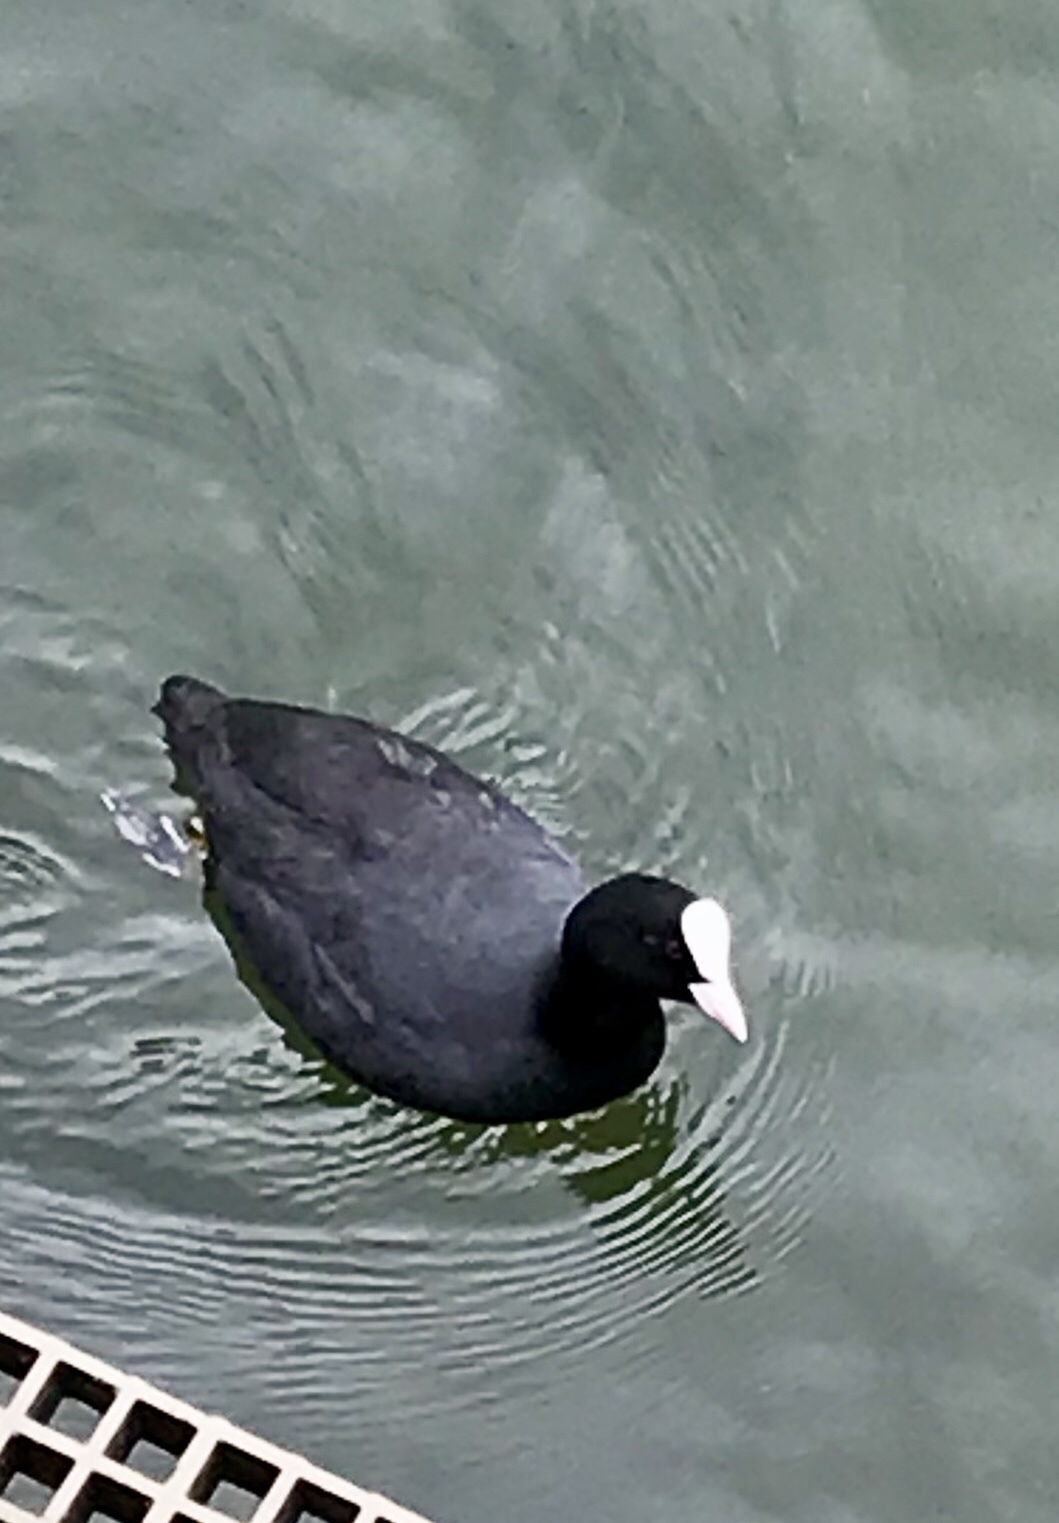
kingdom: Animalia
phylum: Chordata
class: Aves
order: Gruiformes
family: Rallidae
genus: Fulica
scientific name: Fulica atra
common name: Eurasian coot
